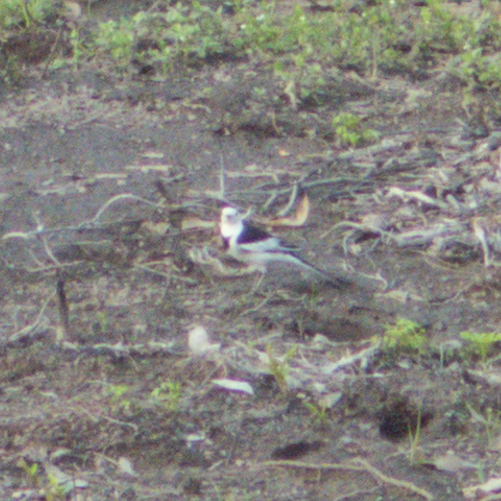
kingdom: Animalia
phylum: Chordata
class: Aves
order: Passeriformes
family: Motacillidae
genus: Motacilla
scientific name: Motacilla alba
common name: White wagtail
